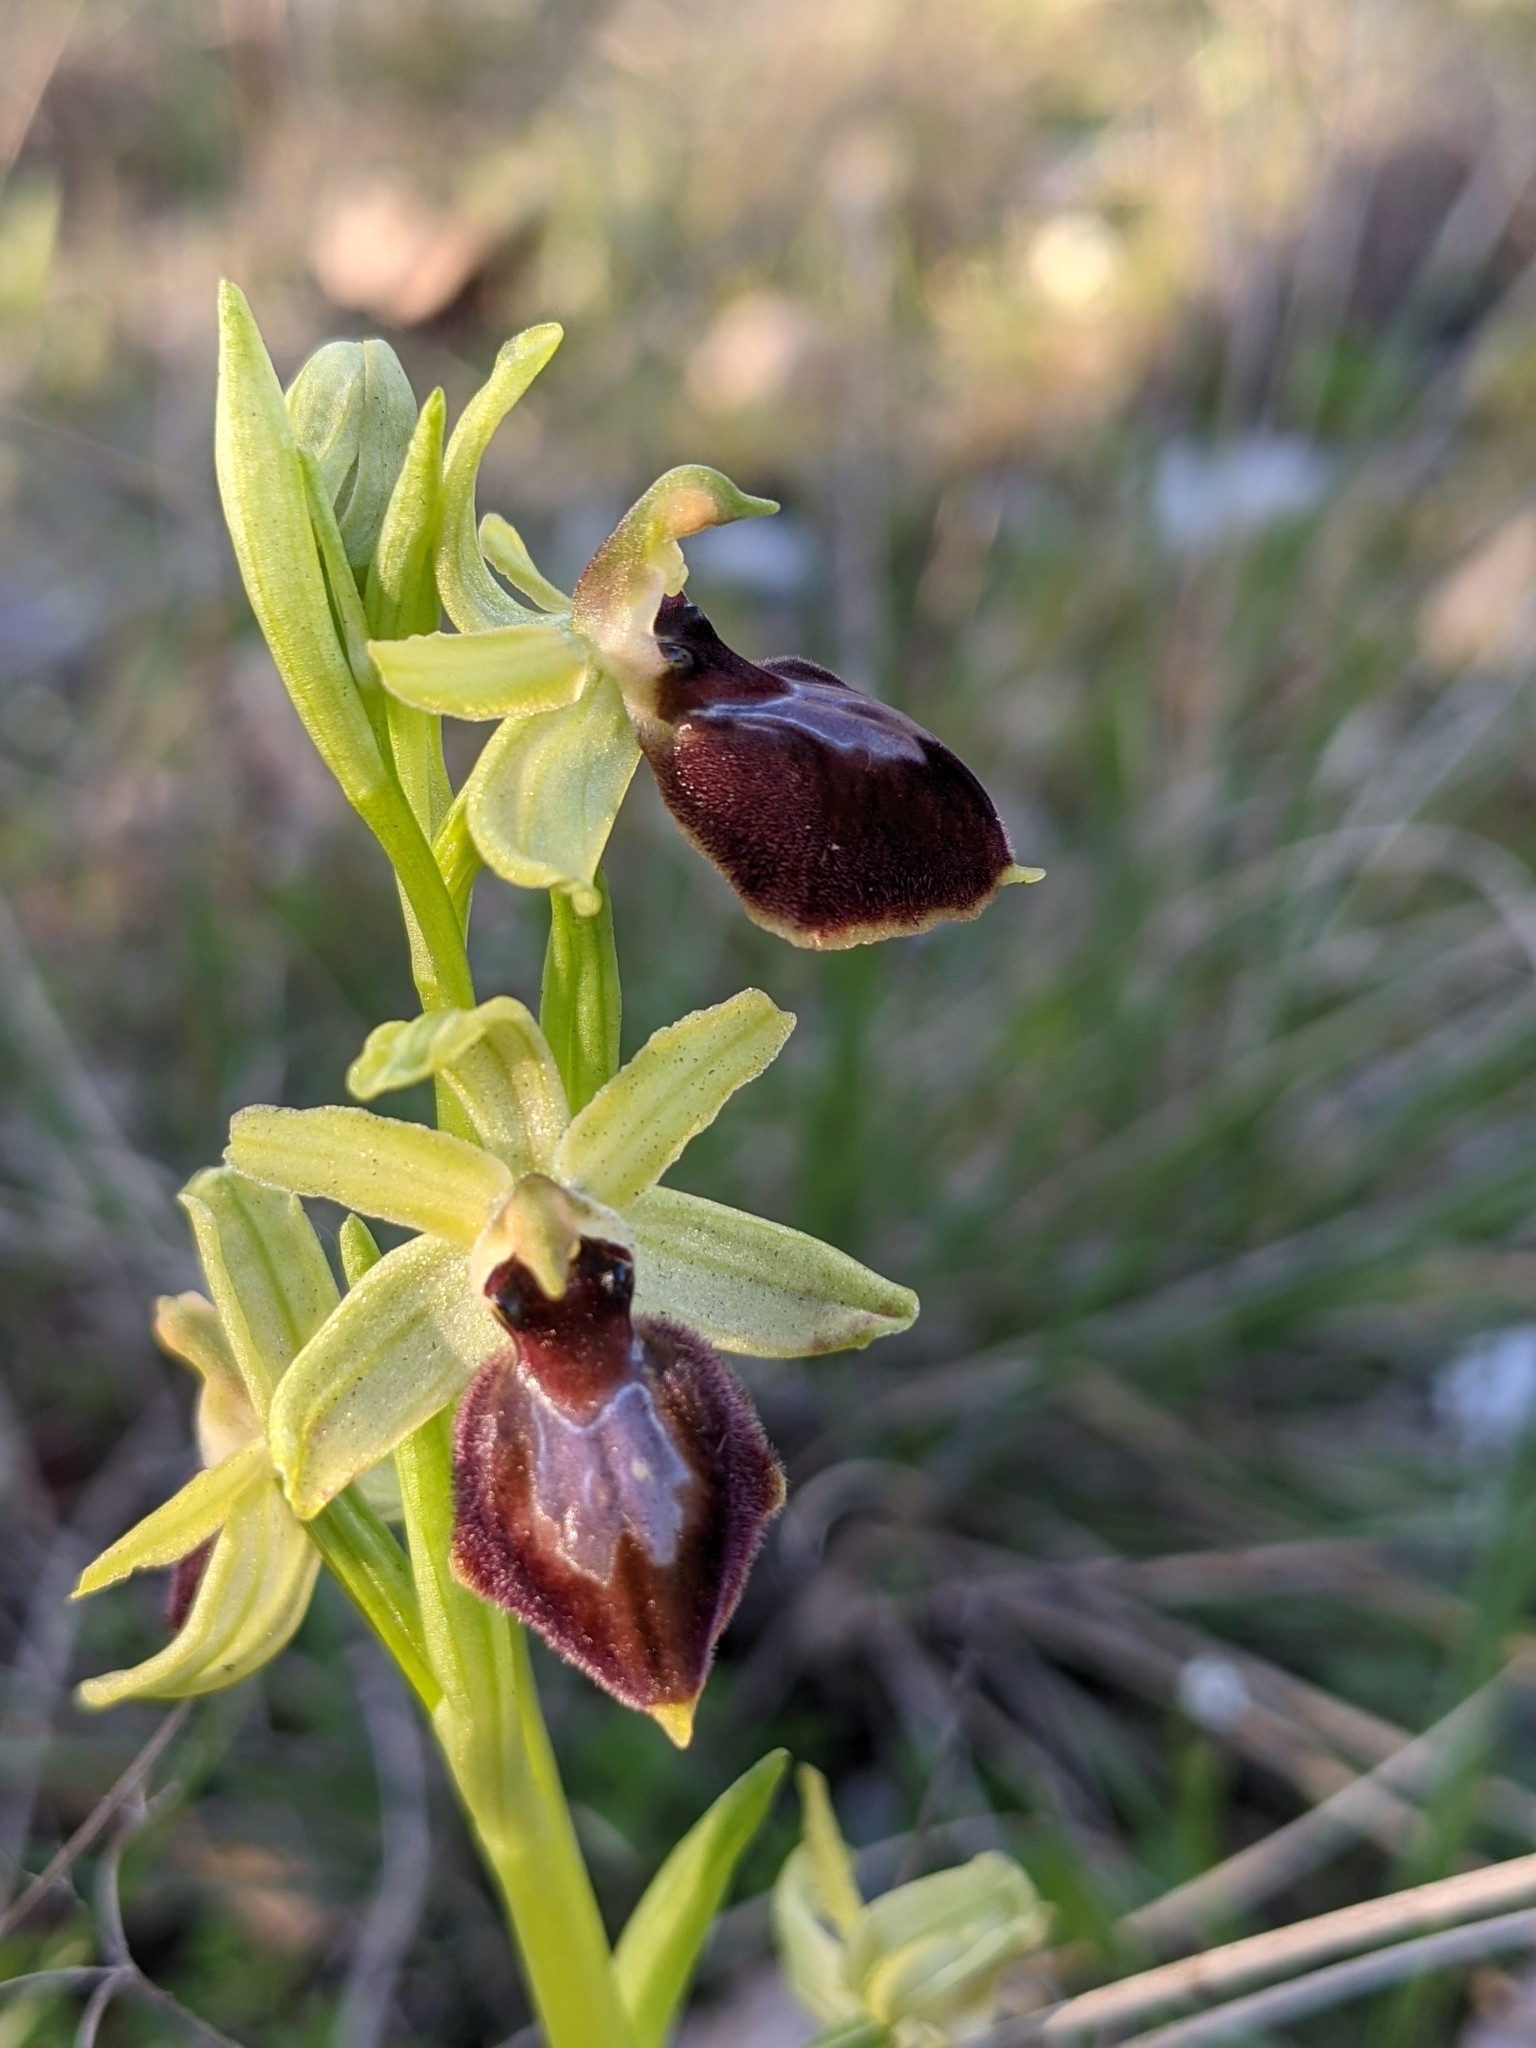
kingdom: Plantae
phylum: Tracheophyta
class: Liliopsida
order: Asparagales
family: Orchidaceae
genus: Ophrys
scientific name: Ophrys arachnitiformis
